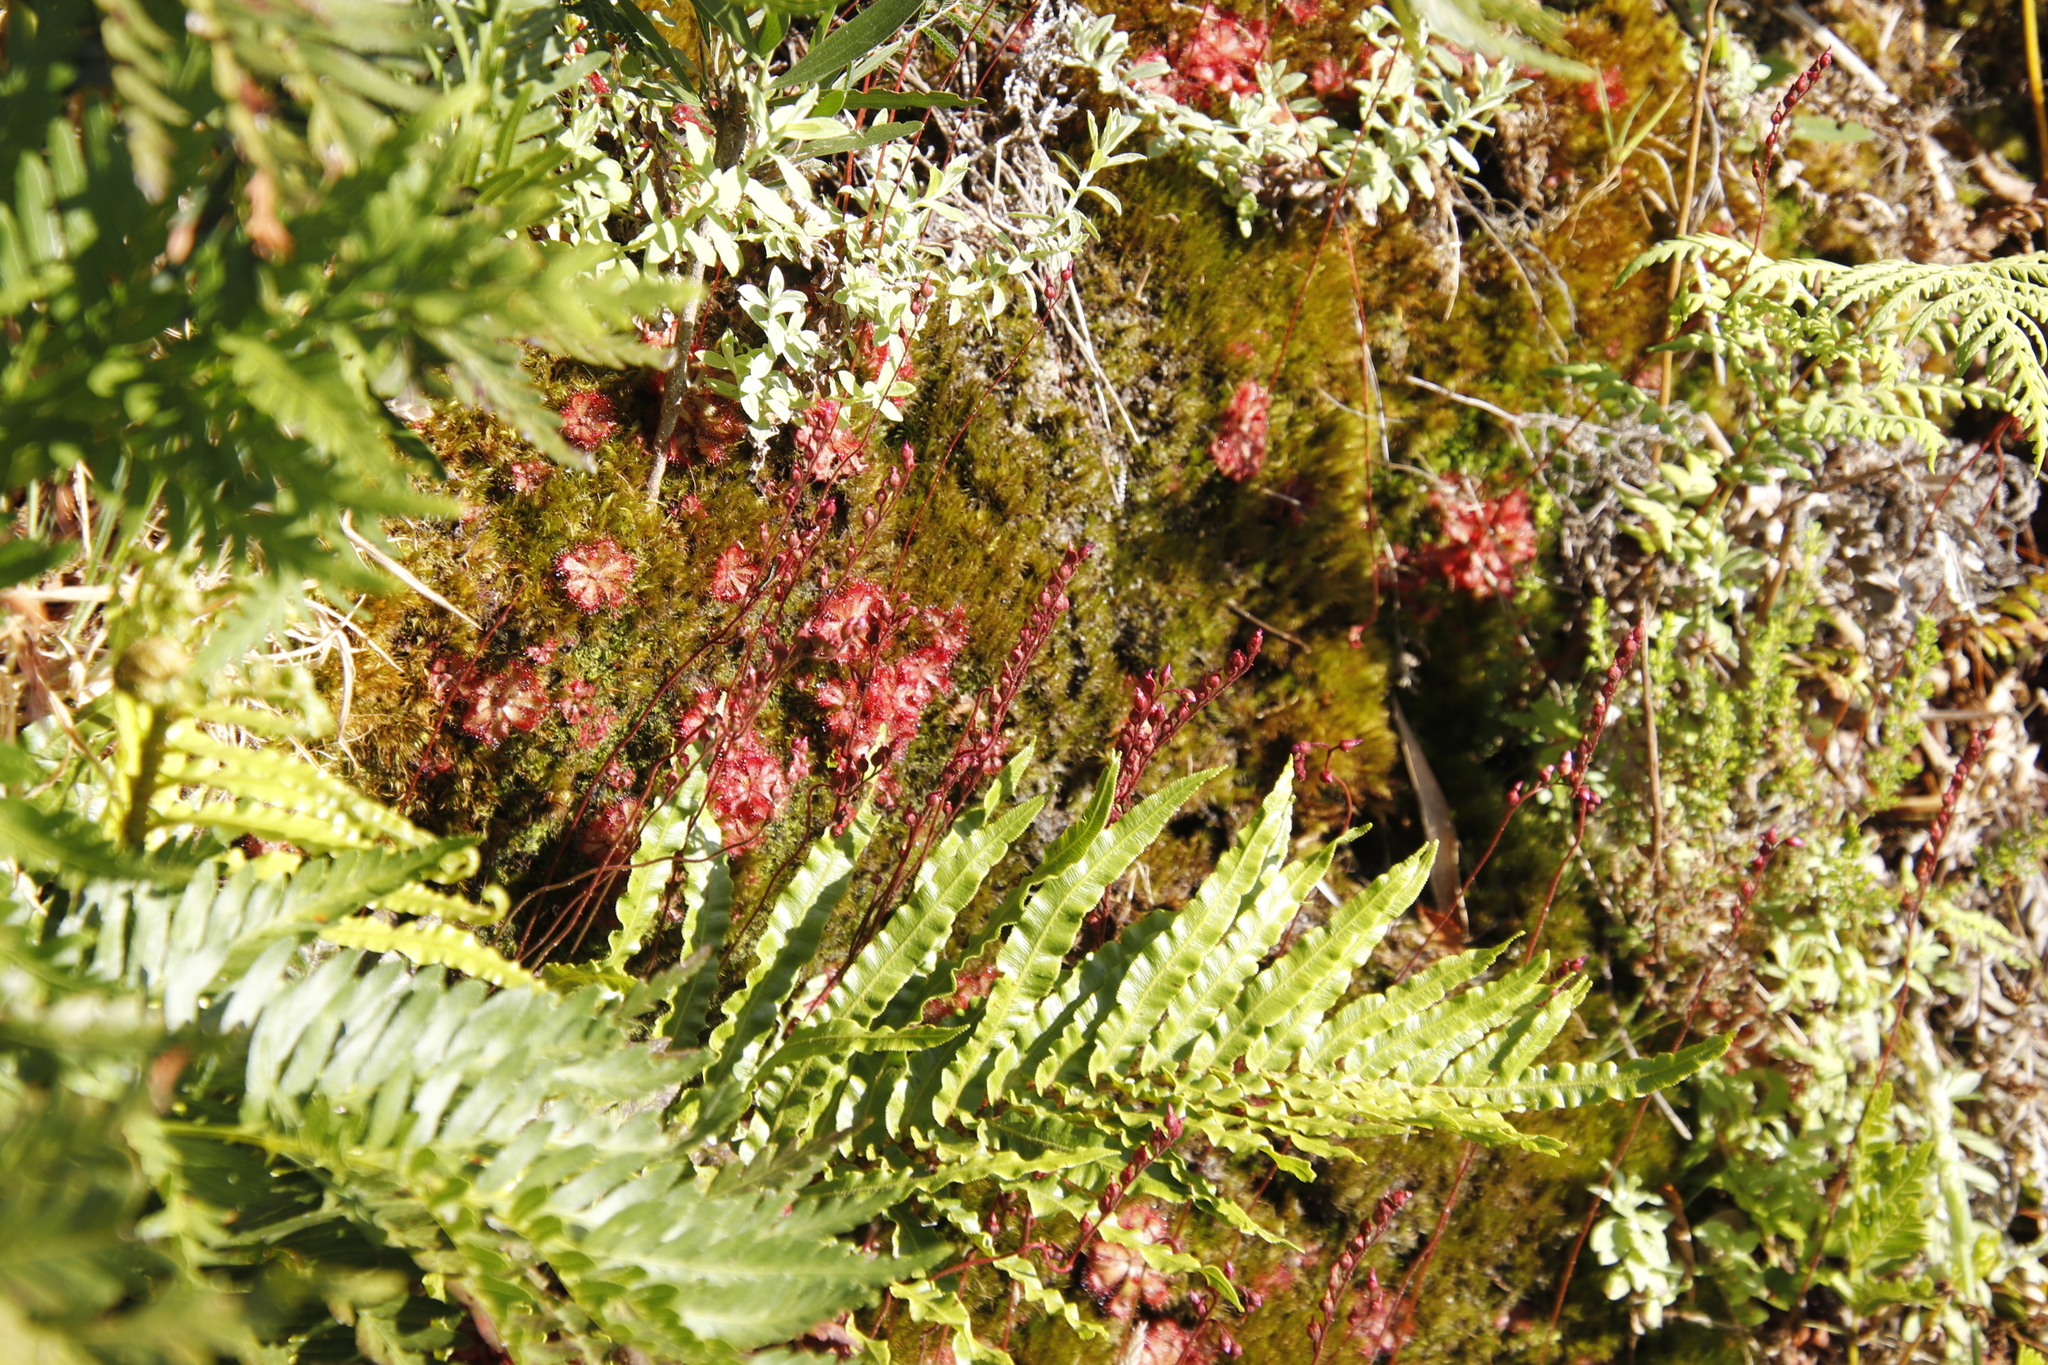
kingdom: Plantae
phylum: Tracheophyta
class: Magnoliopsida
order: Caryophyllales
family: Droseraceae
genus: Drosera
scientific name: Drosera aliciae
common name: Alice sundew
